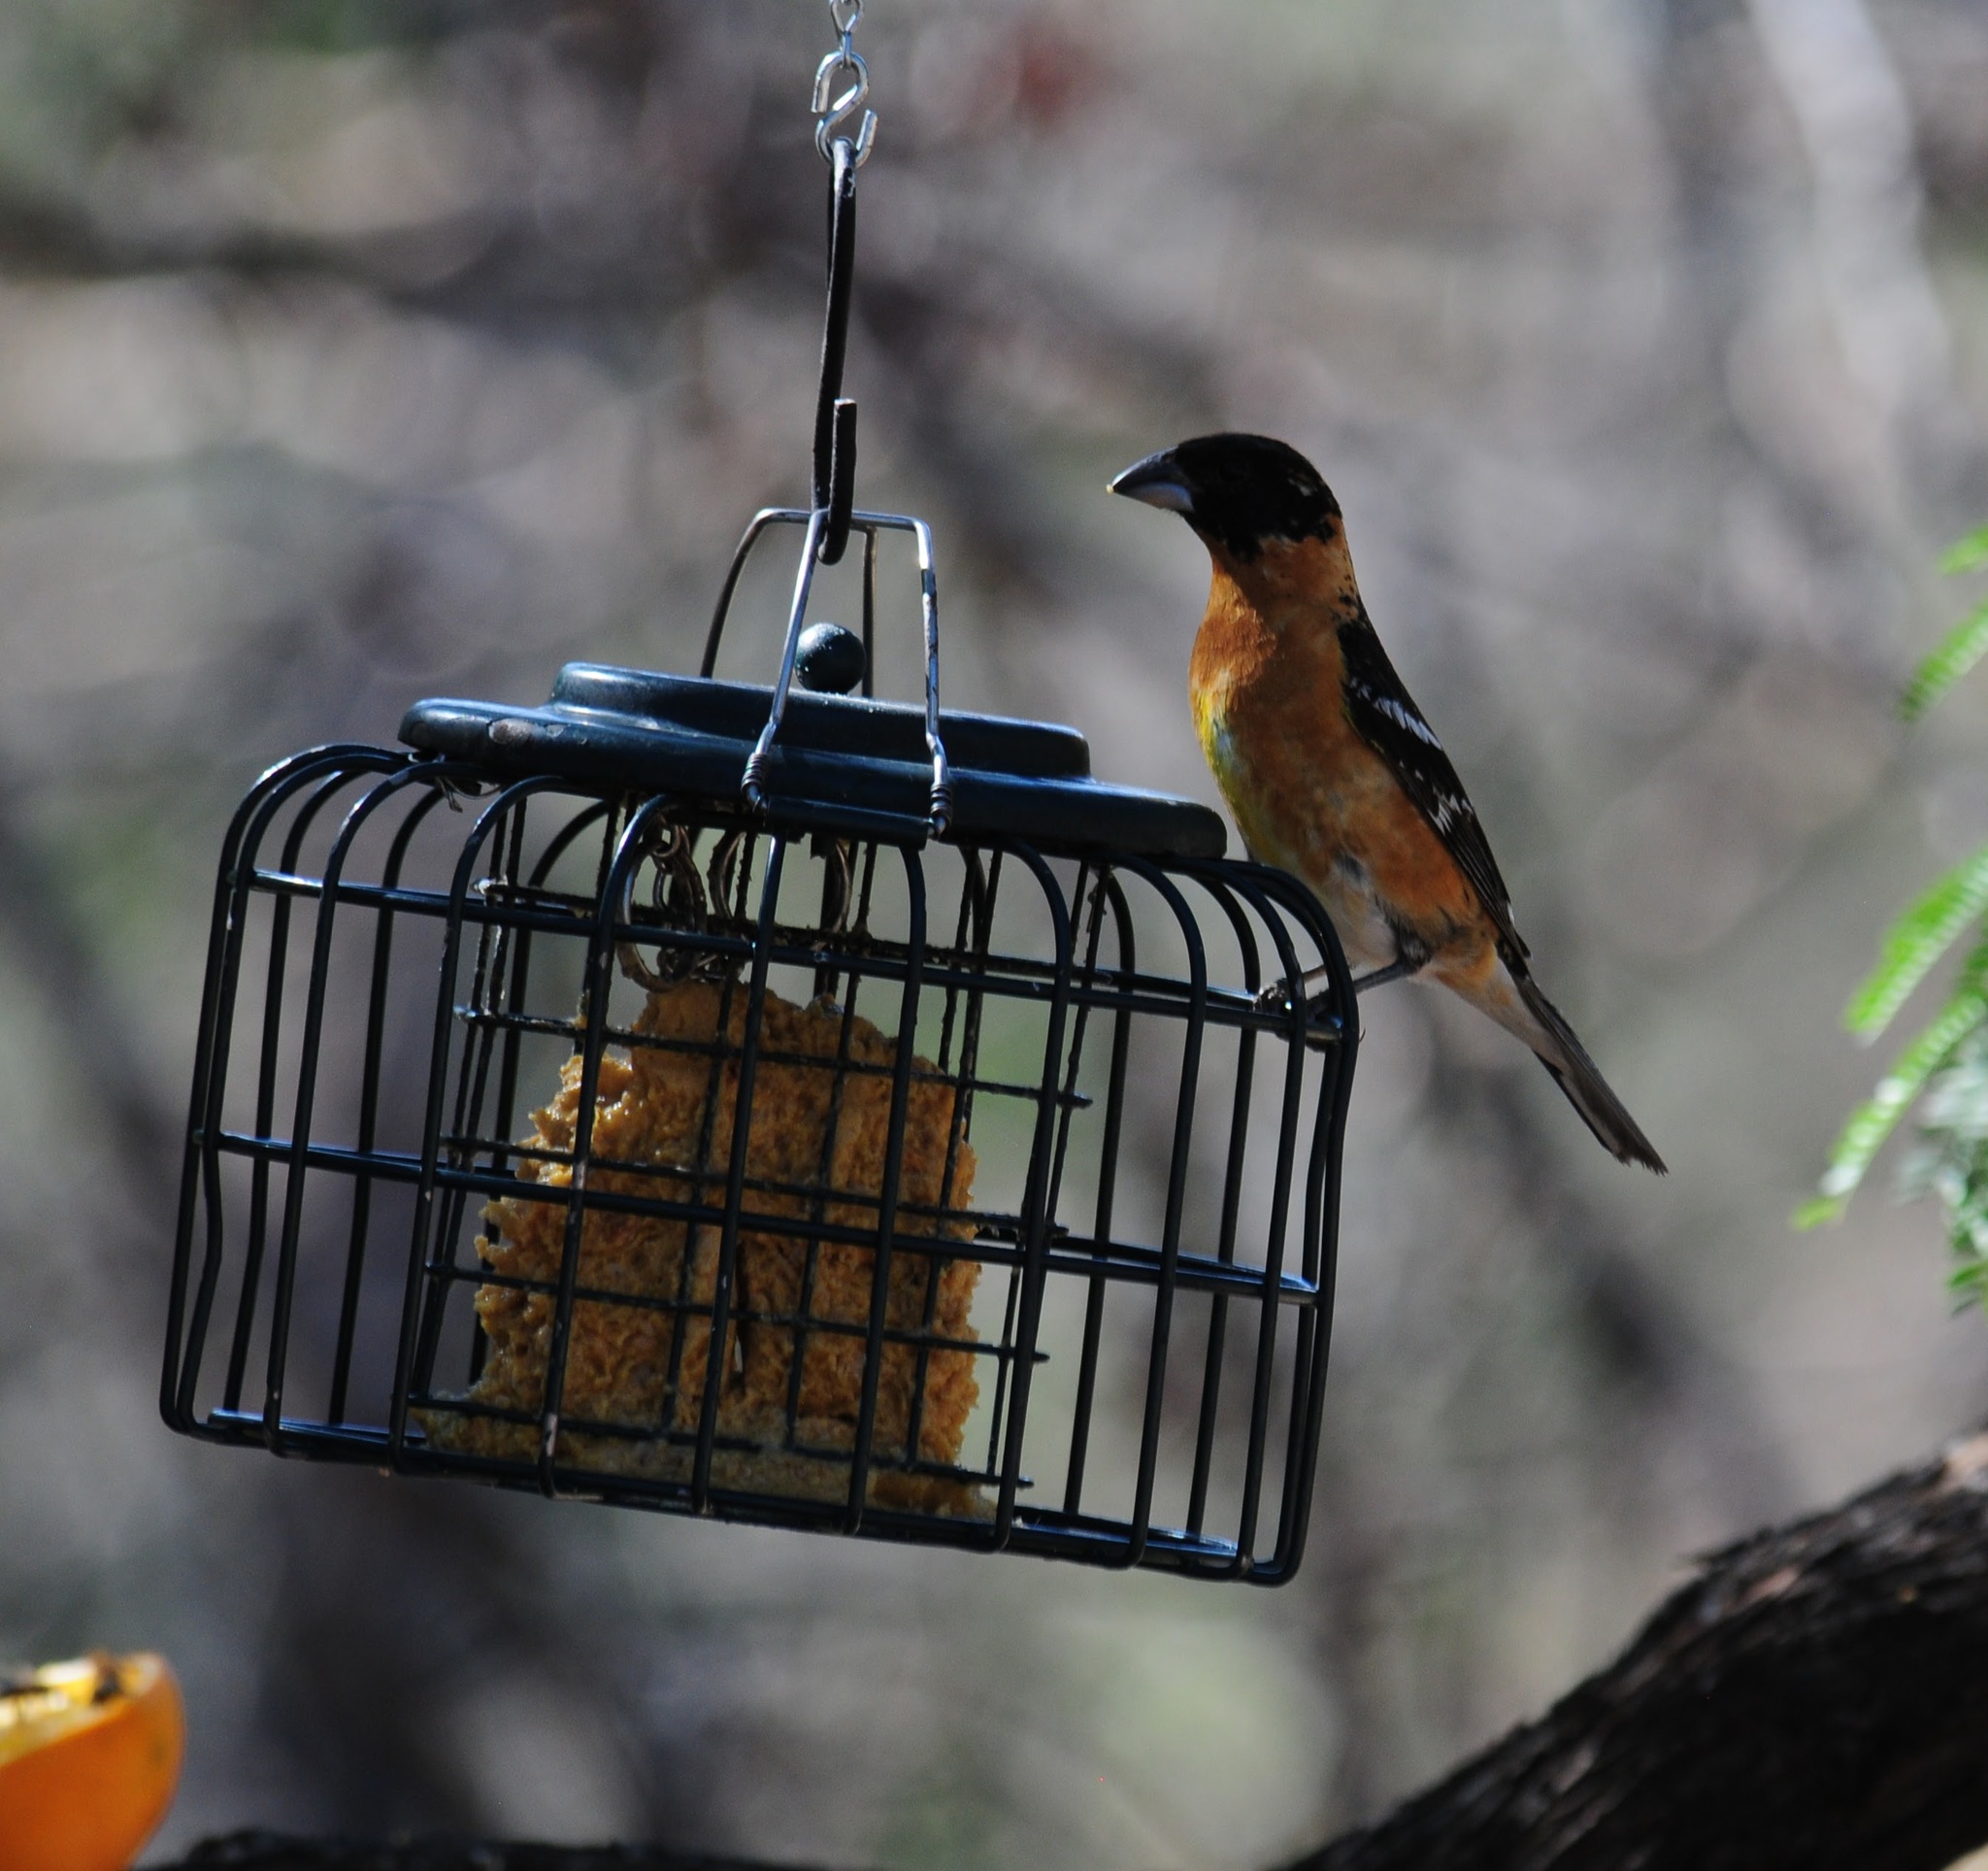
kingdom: Animalia
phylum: Chordata
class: Aves
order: Passeriformes
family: Cardinalidae
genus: Pheucticus
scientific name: Pheucticus melanocephalus
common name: Black-headed grosbeak
